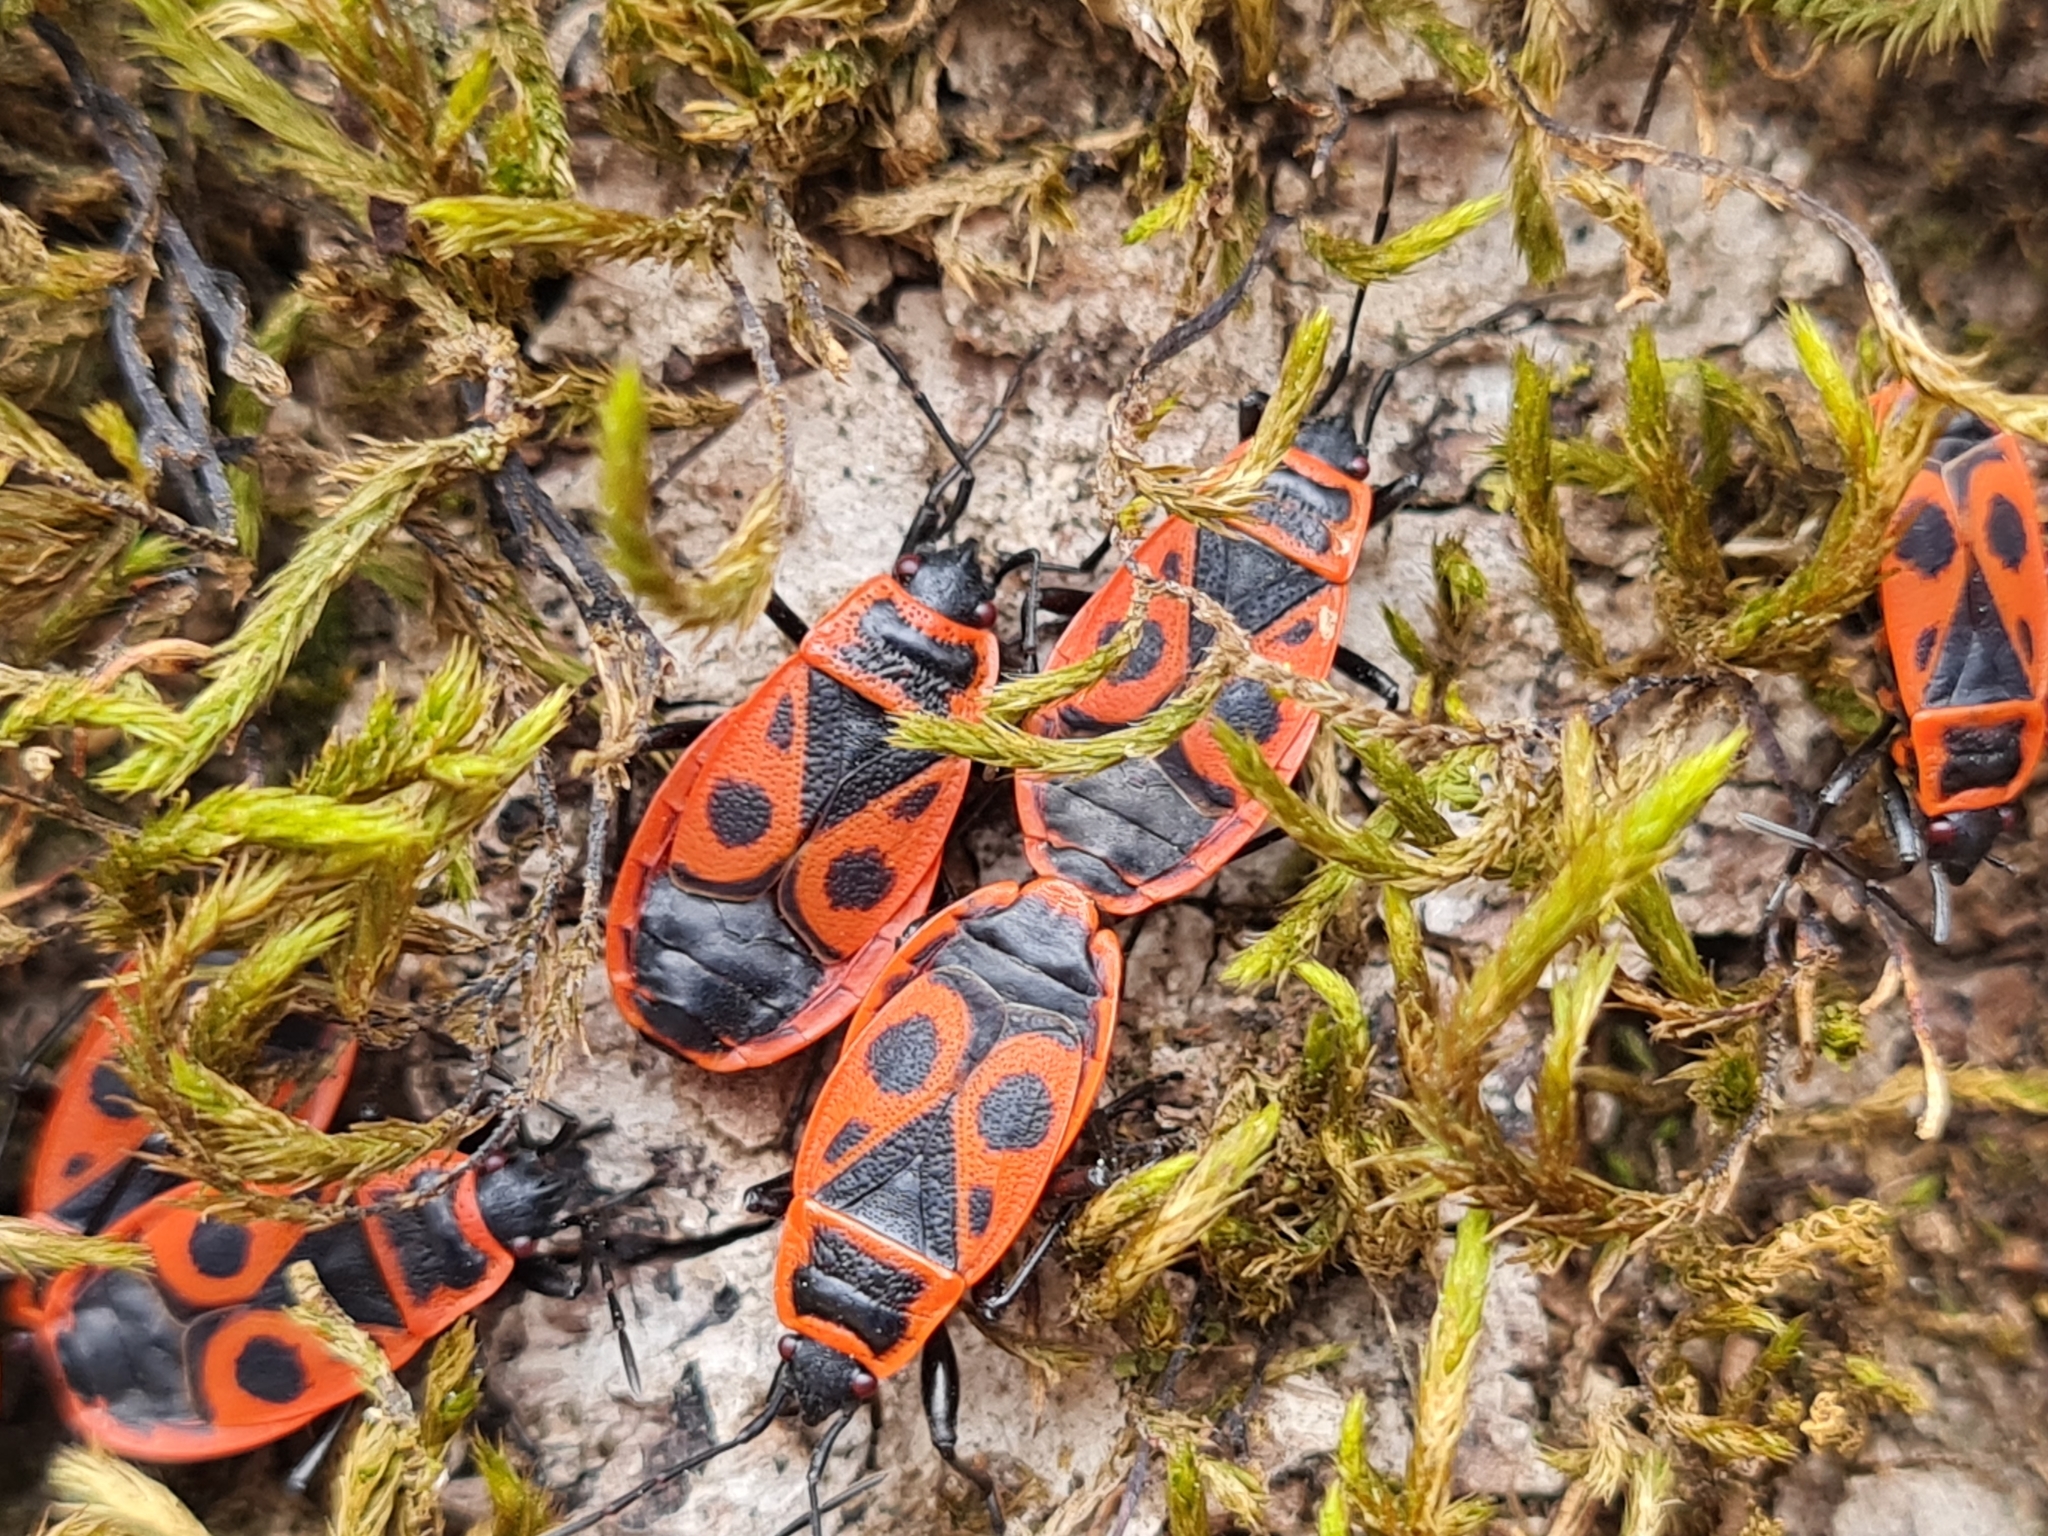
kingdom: Animalia
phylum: Arthropoda
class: Insecta
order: Hemiptera
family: Pyrrhocoridae
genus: Pyrrhocoris
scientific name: Pyrrhocoris apterus
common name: Firebug
